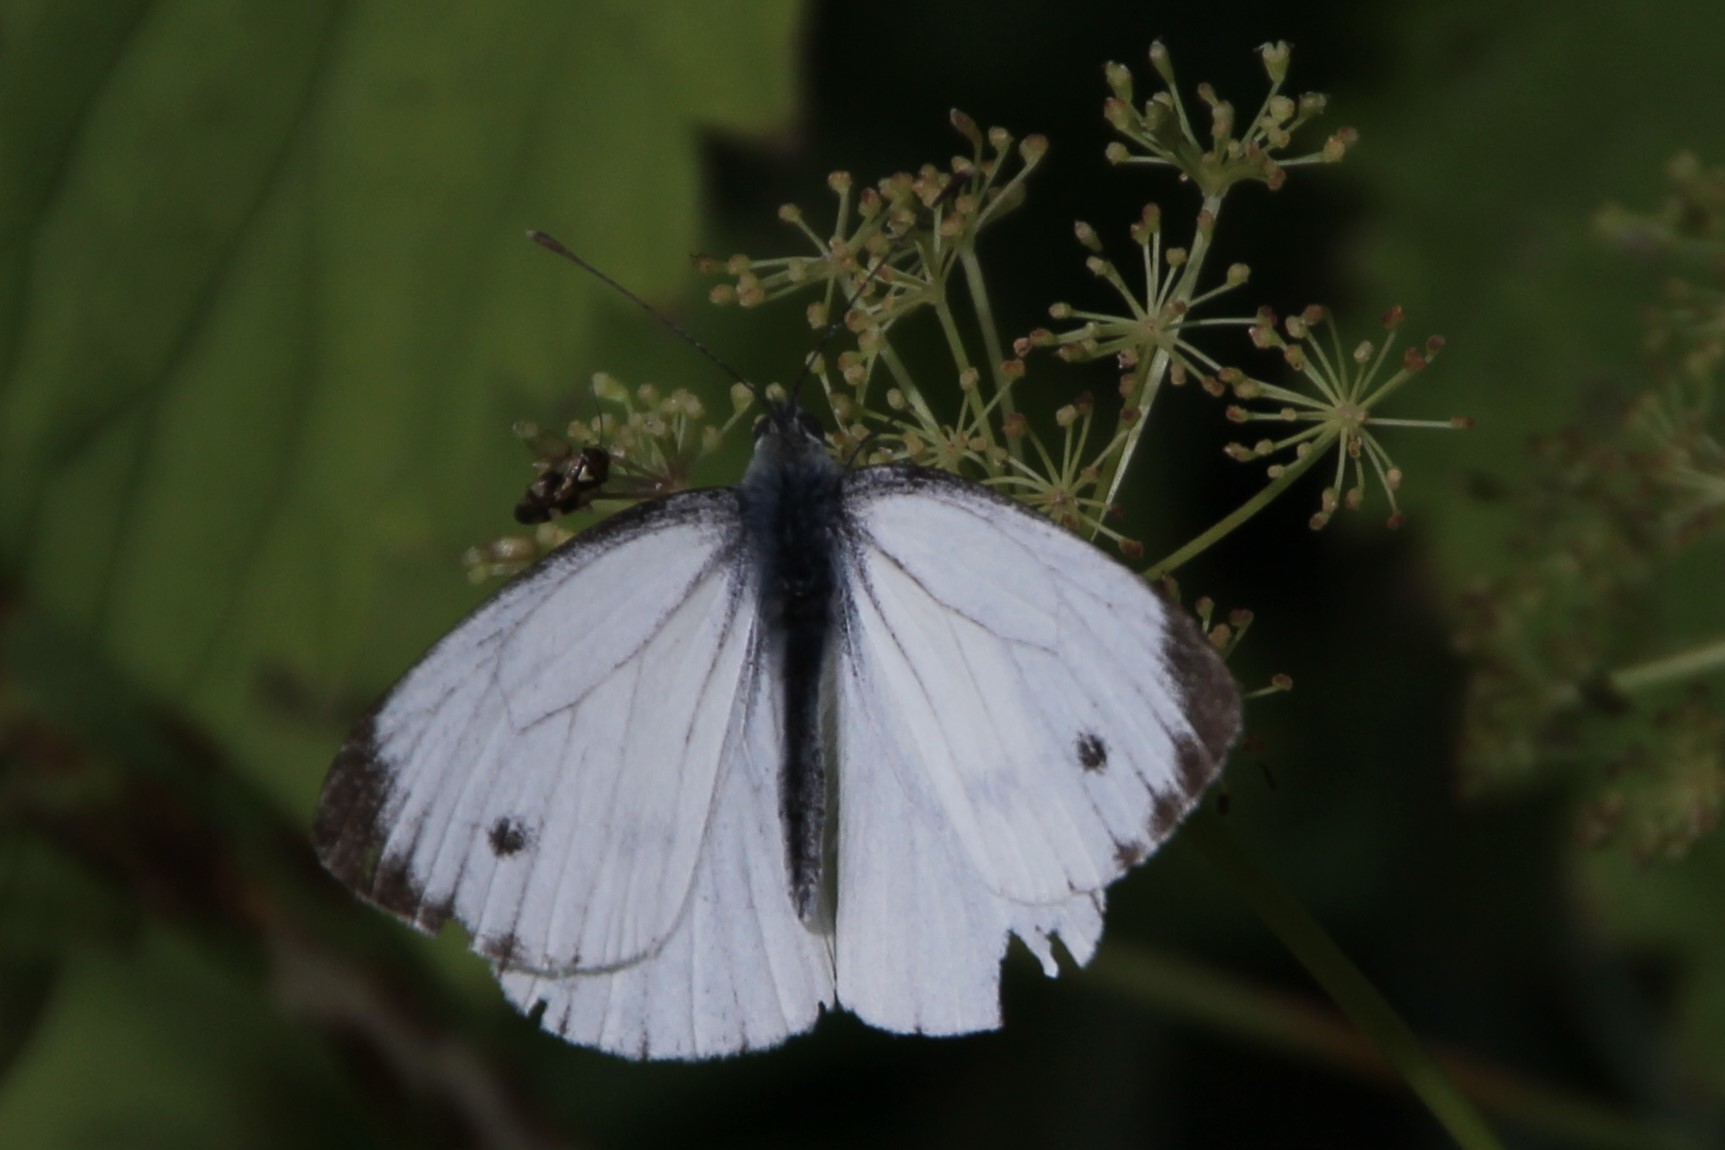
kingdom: Animalia
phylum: Arthropoda
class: Insecta
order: Lepidoptera
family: Pieridae
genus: Pieris
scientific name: Pieris napi
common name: Green-veined white
